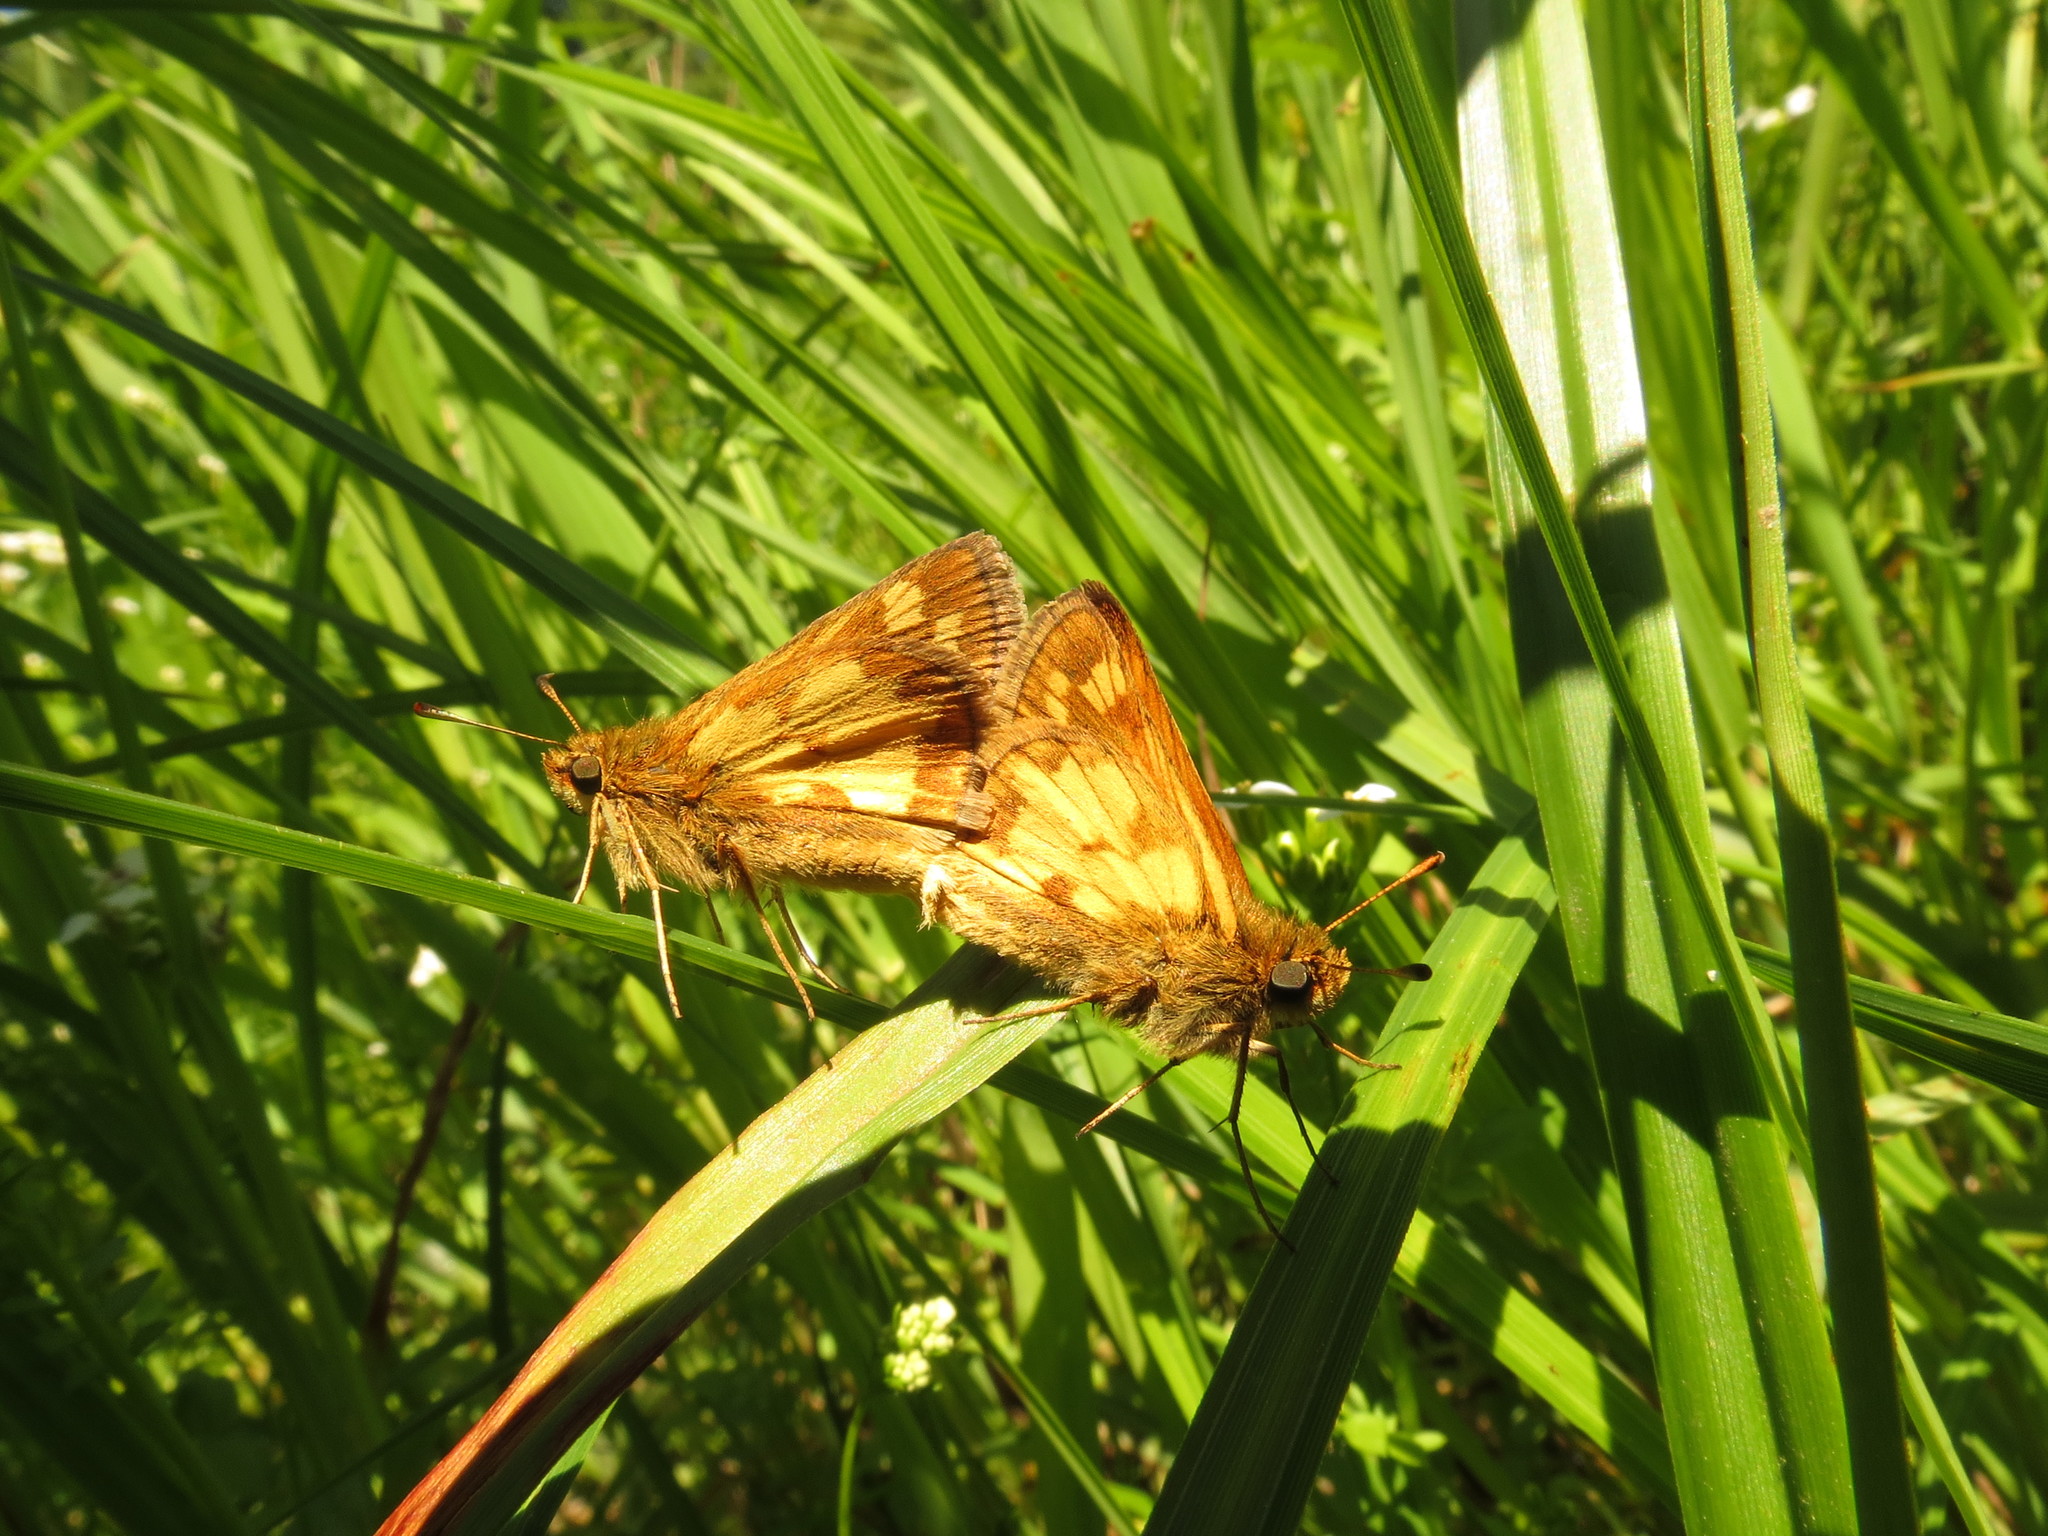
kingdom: Animalia
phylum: Arthropoda
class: Insecta
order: Lepidoptera
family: Hesperiidae
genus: Polites
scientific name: Polites coras
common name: Peck's skipper
